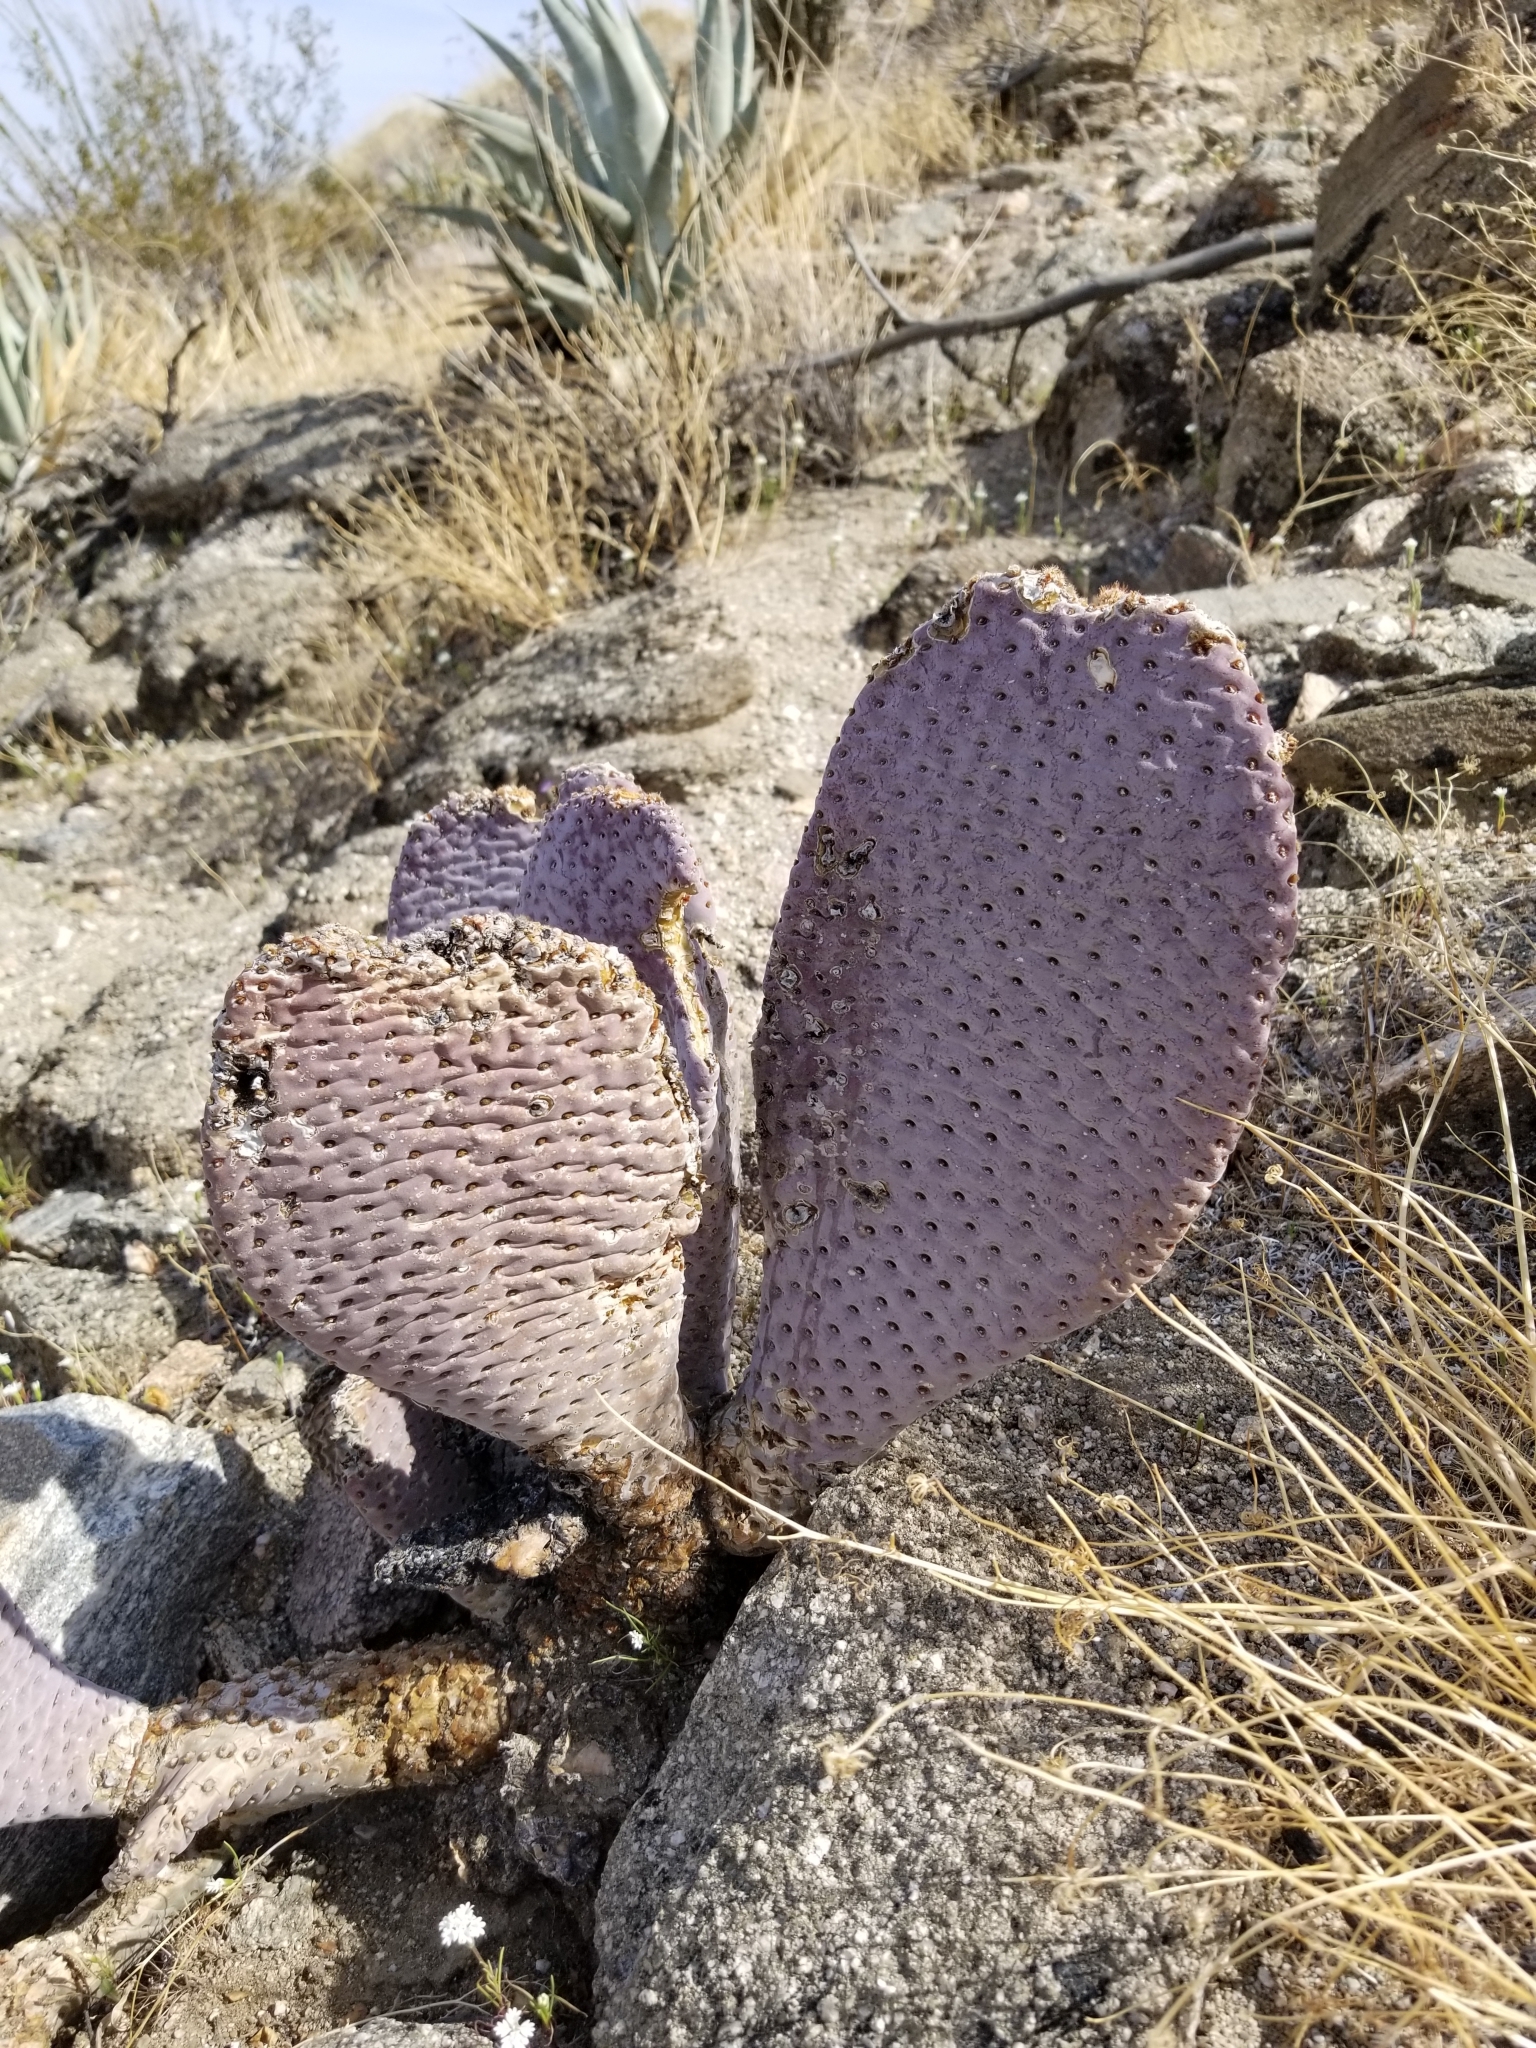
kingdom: Plantae
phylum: Tracheophyta
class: Magnoliopsida
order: Caryophyllales
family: Cactaceae
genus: Opuntia
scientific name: Opuntia basilaris
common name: Beavertail prickly-pear
